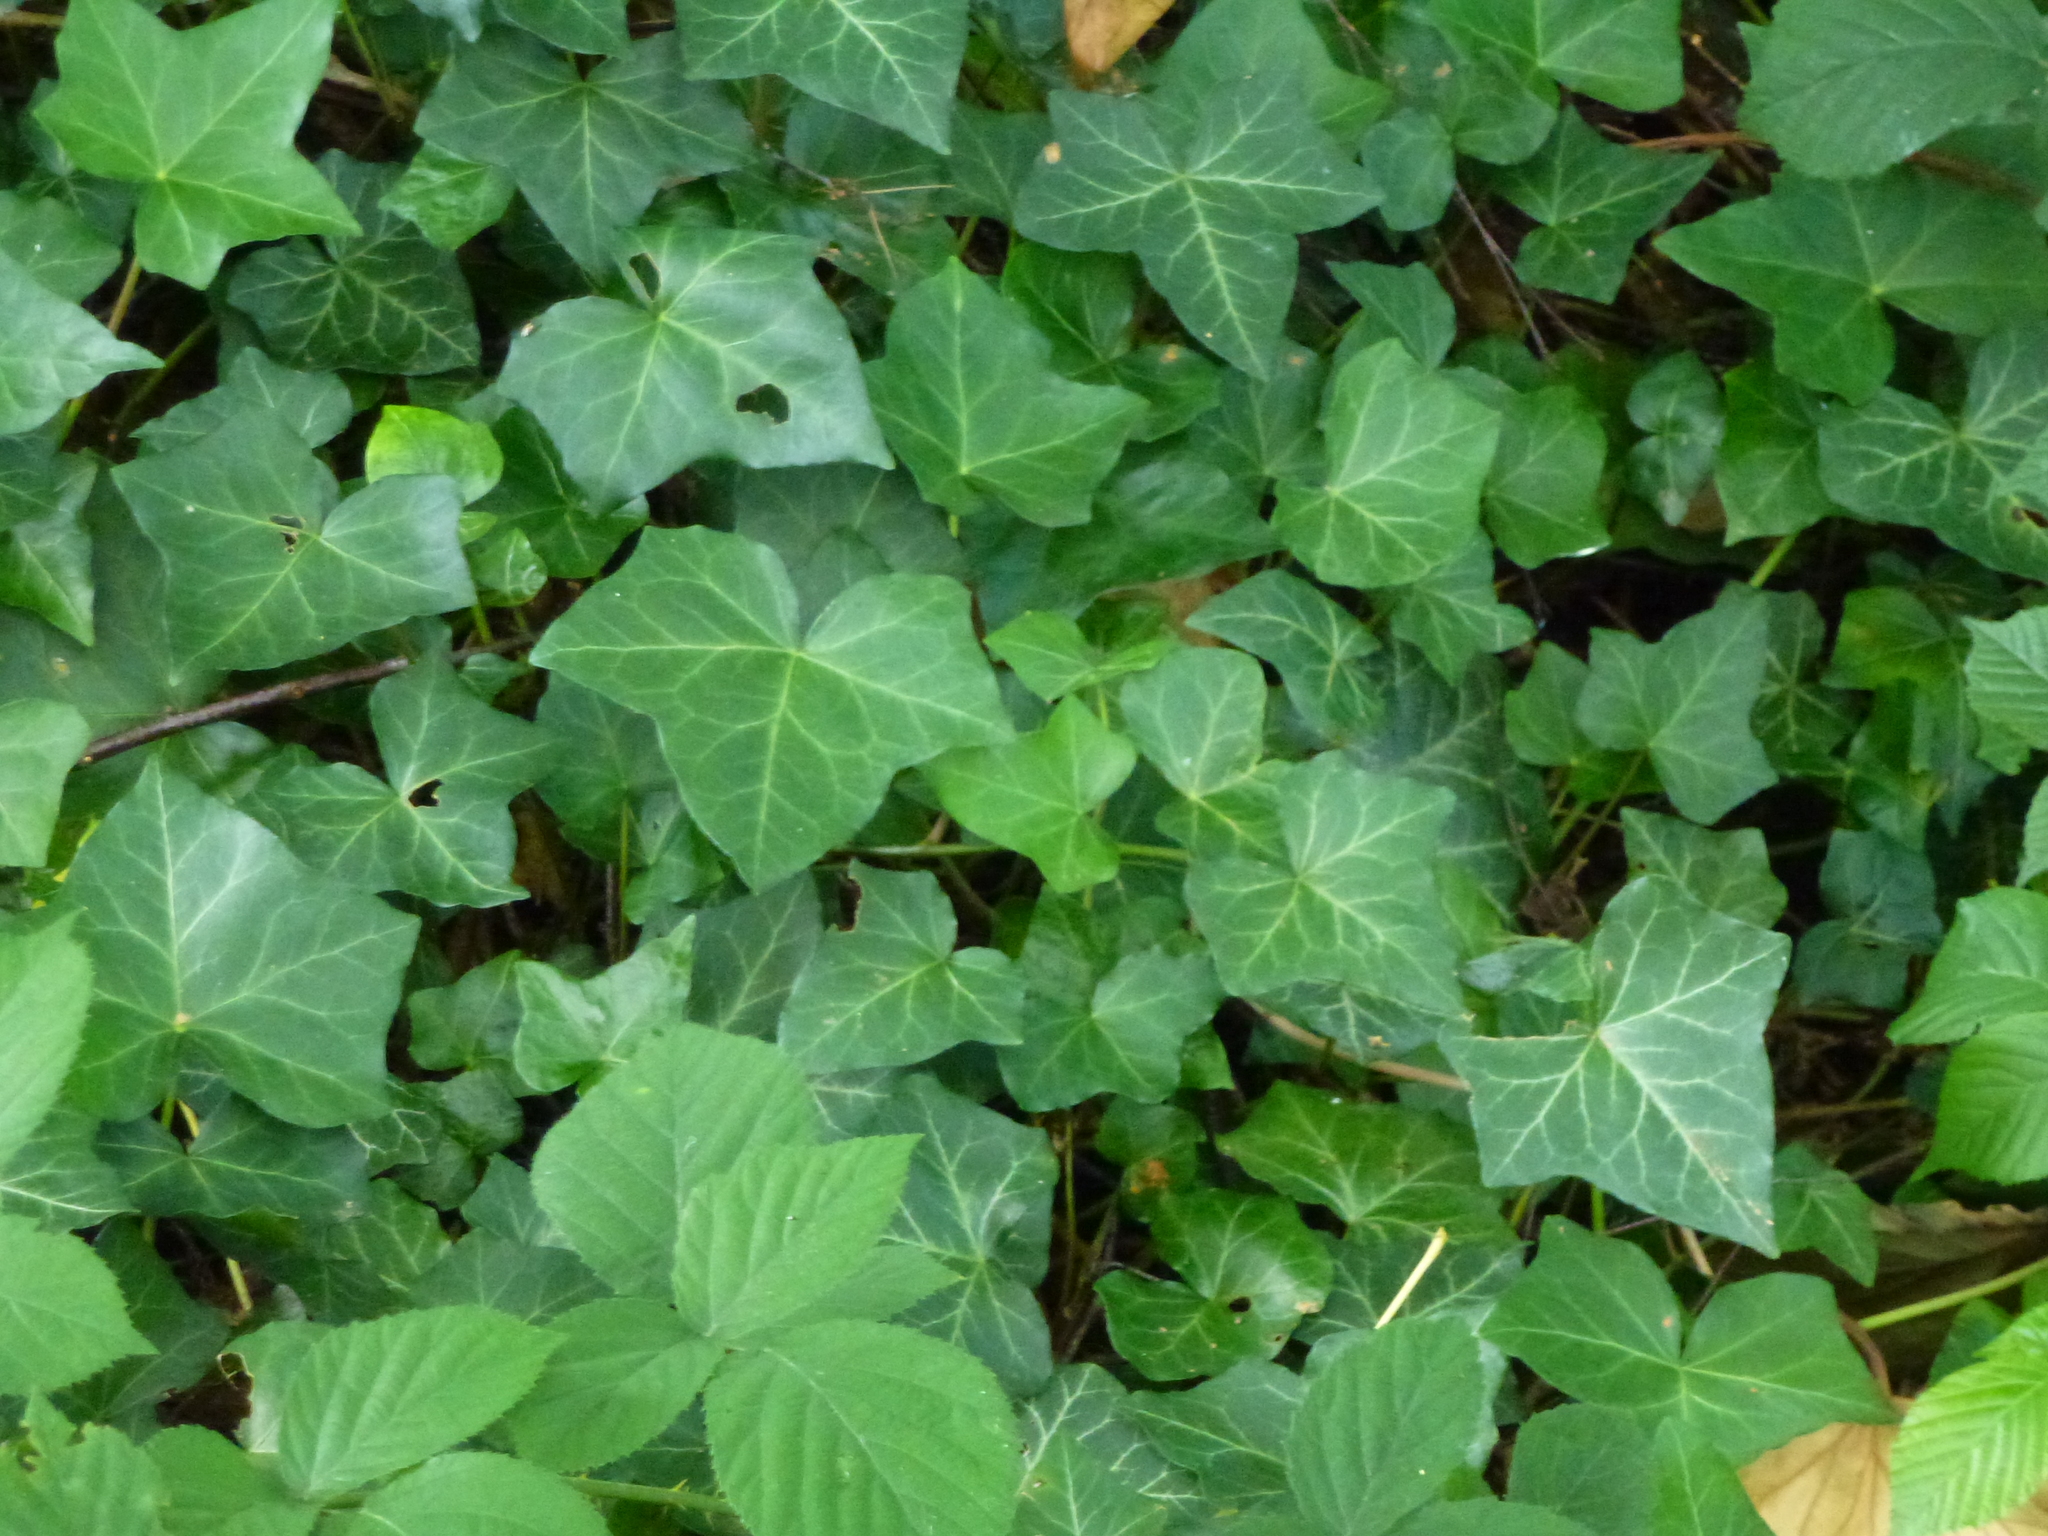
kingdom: Plantae
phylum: Tracheophyta
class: Magnoliopsida
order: Apiales
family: Araliaceae
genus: Hedera
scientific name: Hedera helix
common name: Ivy
